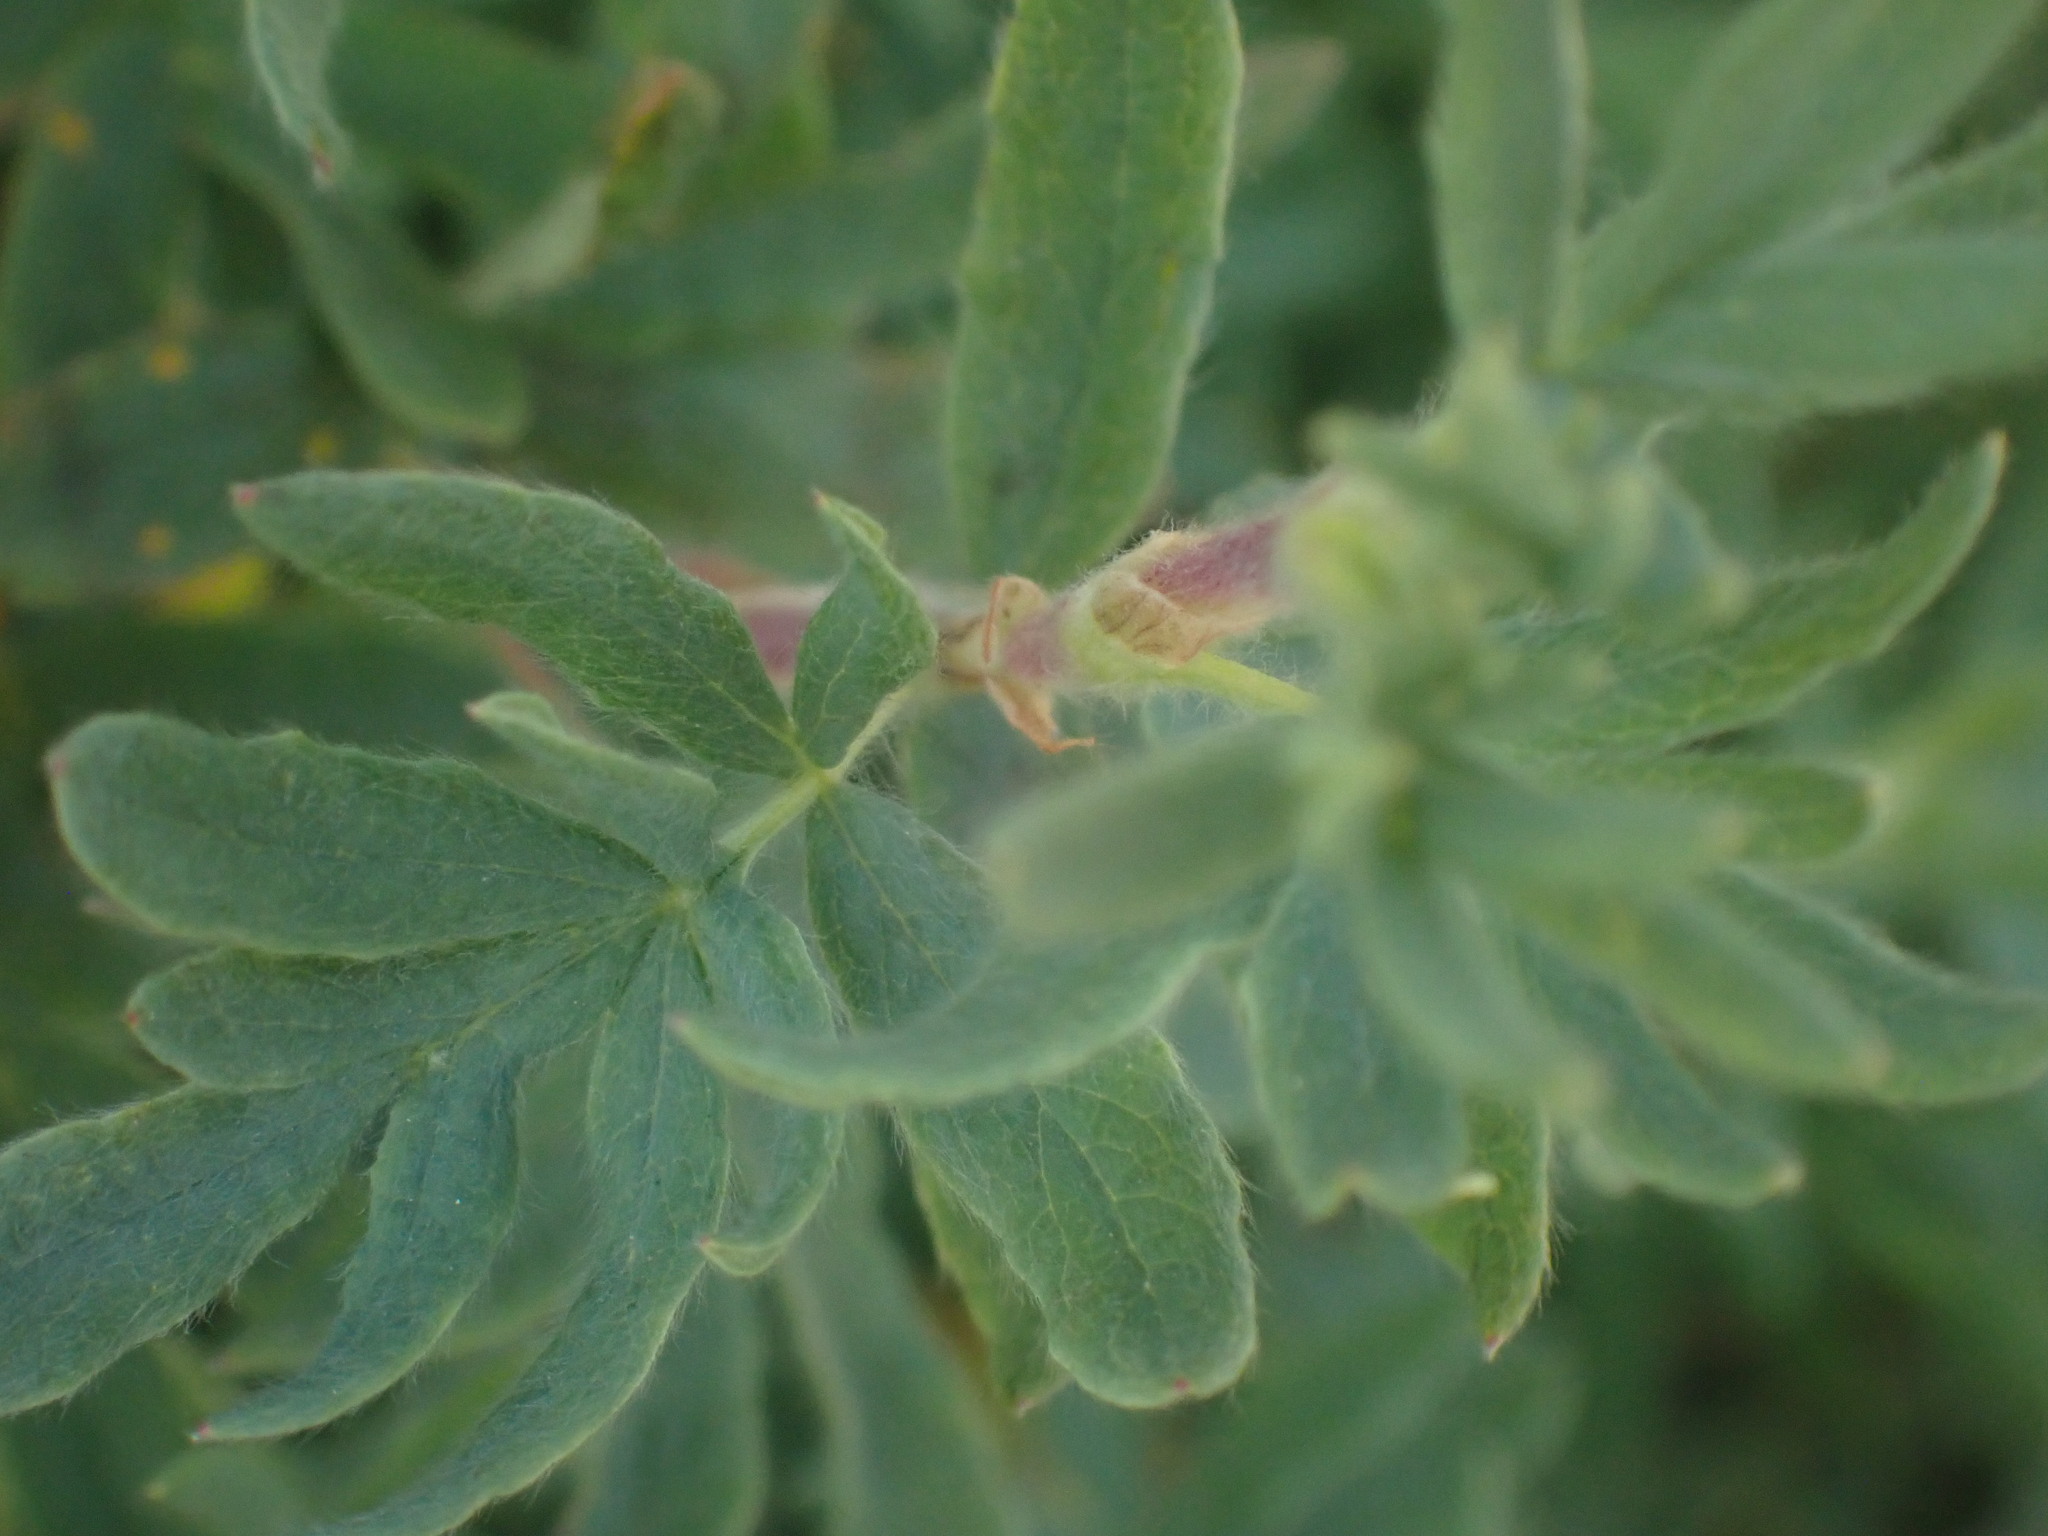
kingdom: Plantae
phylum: Tracheophyta
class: Magnoliopsida
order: Rosales
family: Rosaceae
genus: Dasiphora
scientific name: Dasiphora fruticosa
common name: Shrubby cinquefoil
